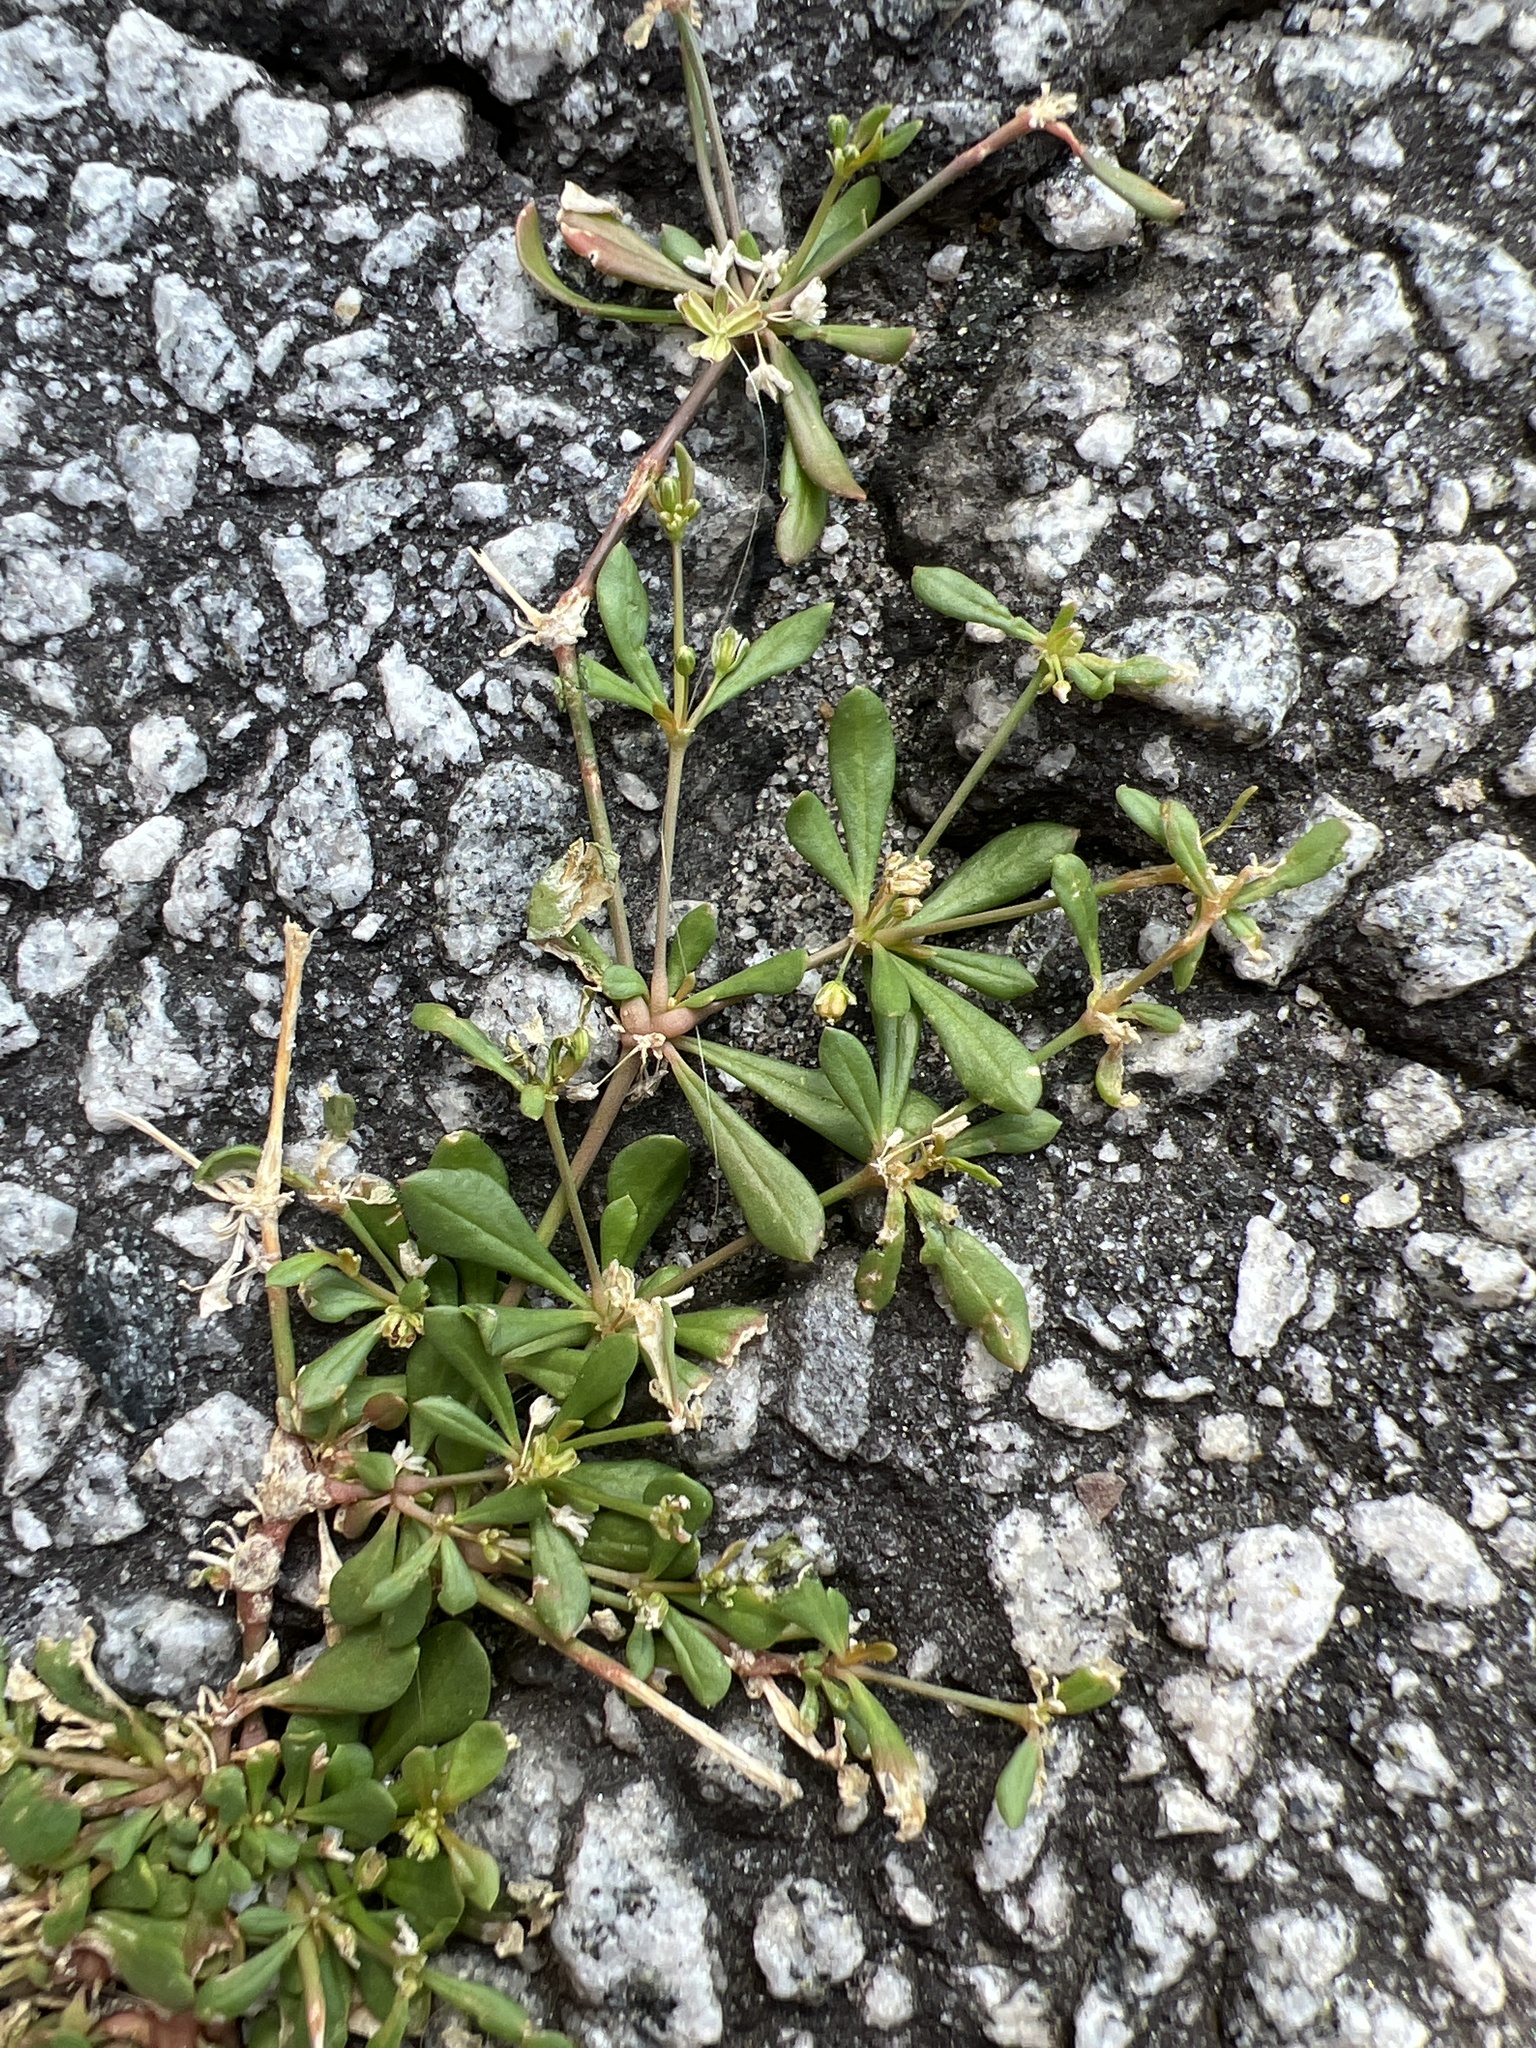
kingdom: Plantae
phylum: Tracheophyta
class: Magnoliopsida
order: Caryophyllales
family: Molluginaceae
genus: Mollugo
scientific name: Mollugo verticillata
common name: Green carpetweed
